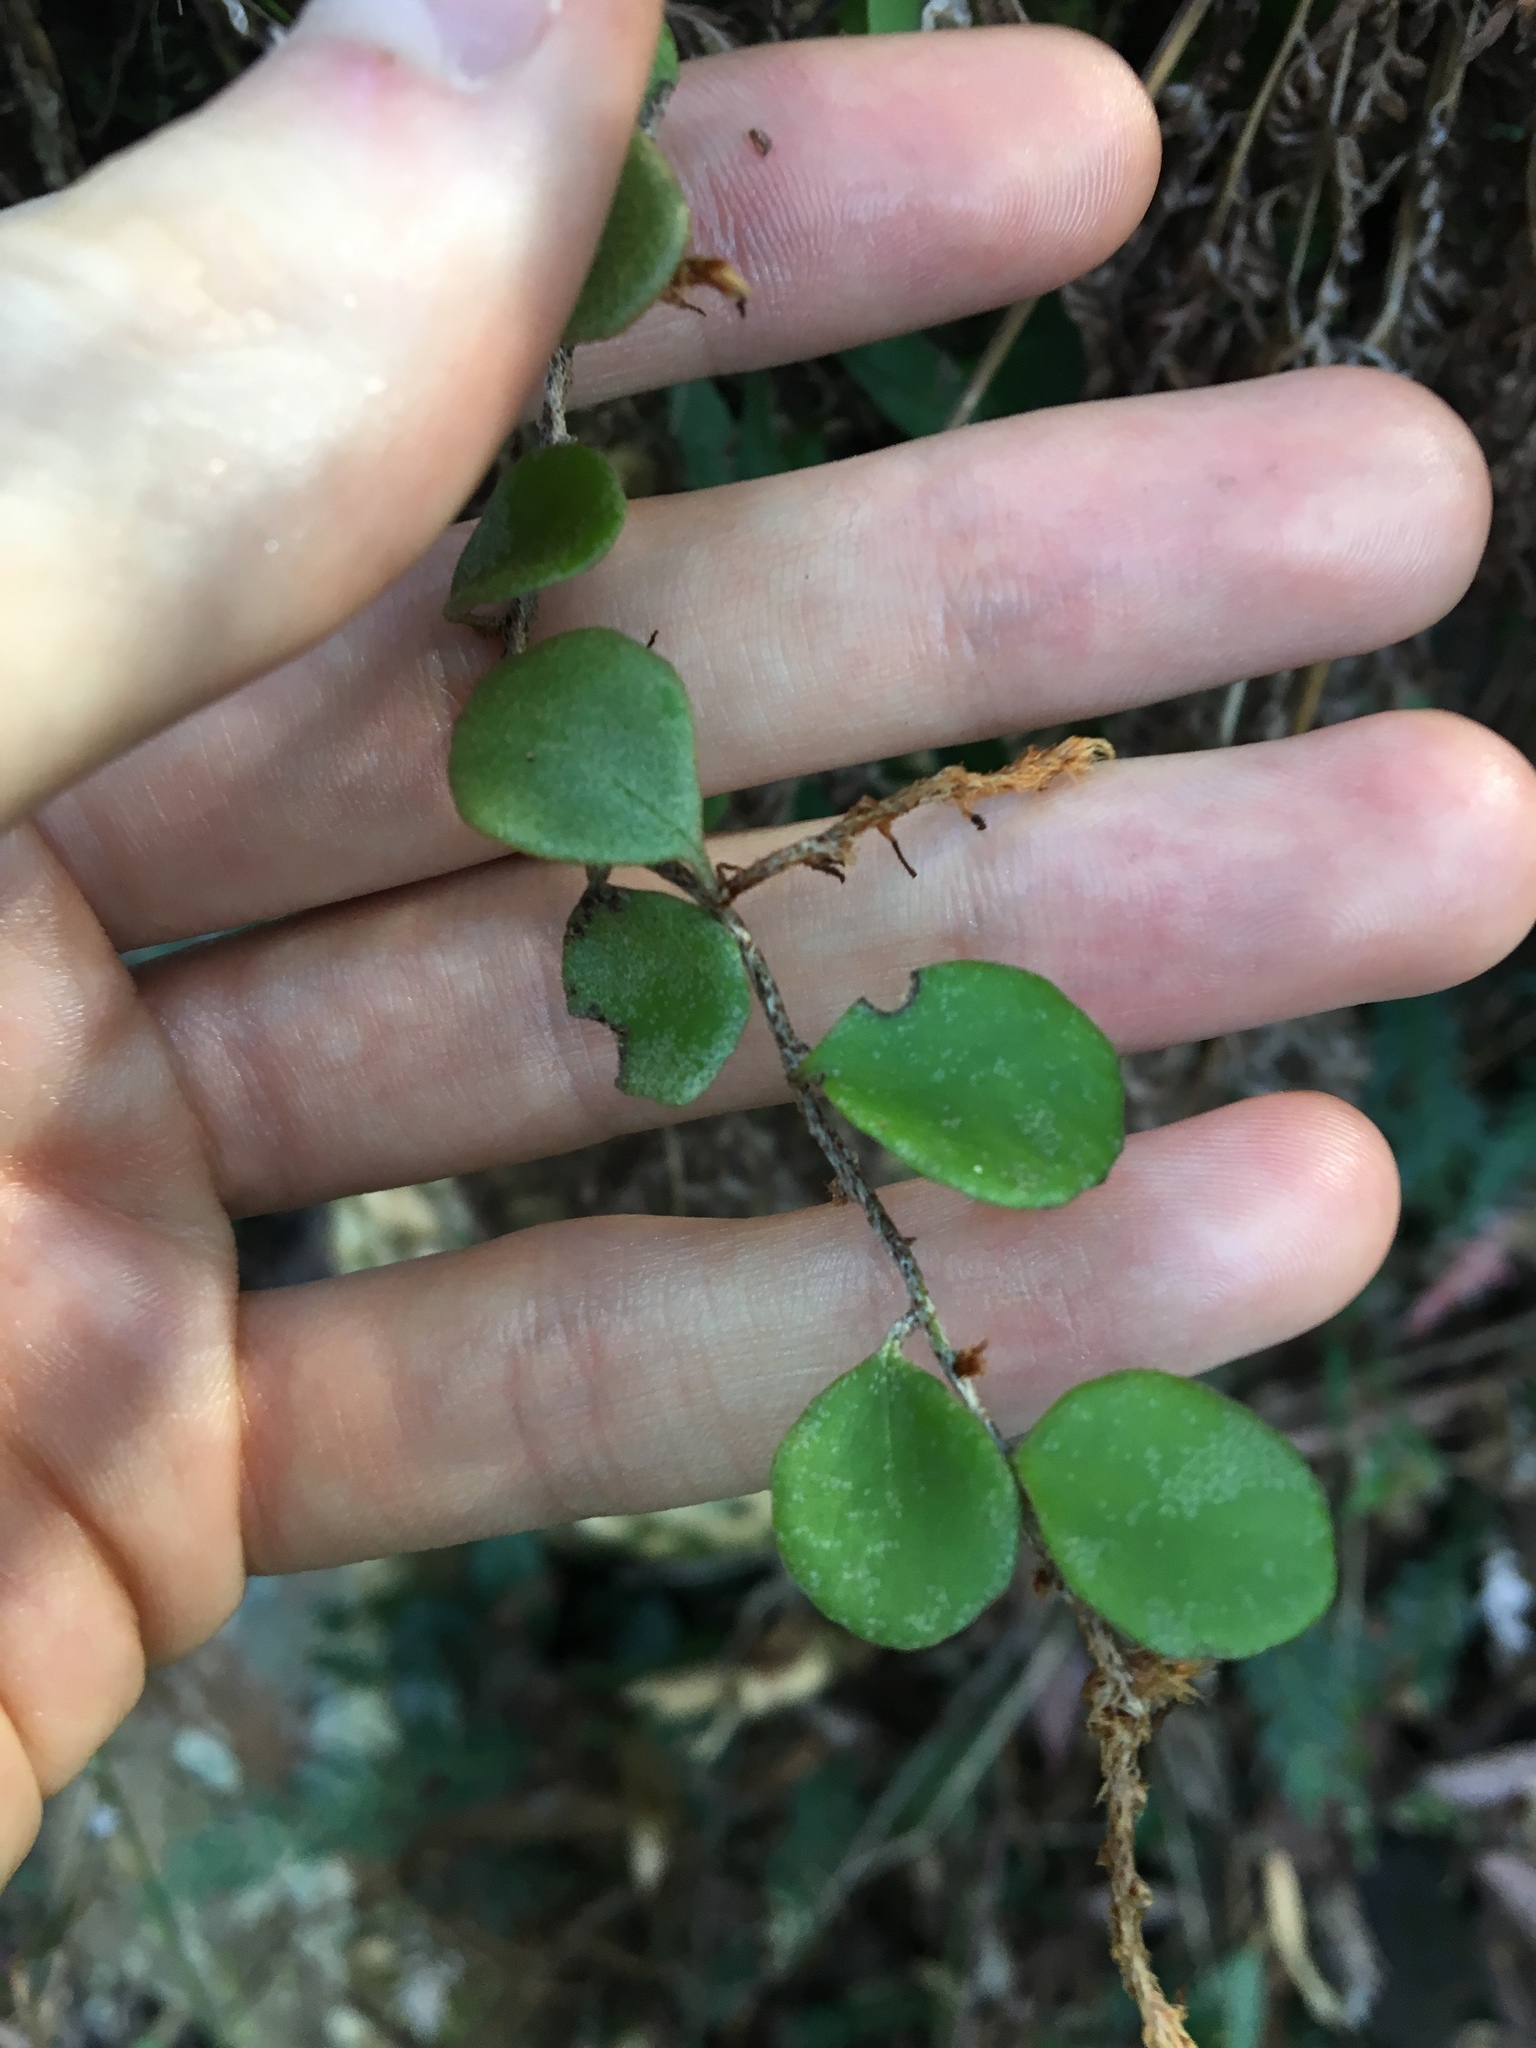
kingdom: Plantae
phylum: Tracheophyta
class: Polypodiopsida
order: Polypodiales
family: Polypodiaceae
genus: Pyrrosia
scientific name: Pyrrosia rupestris
